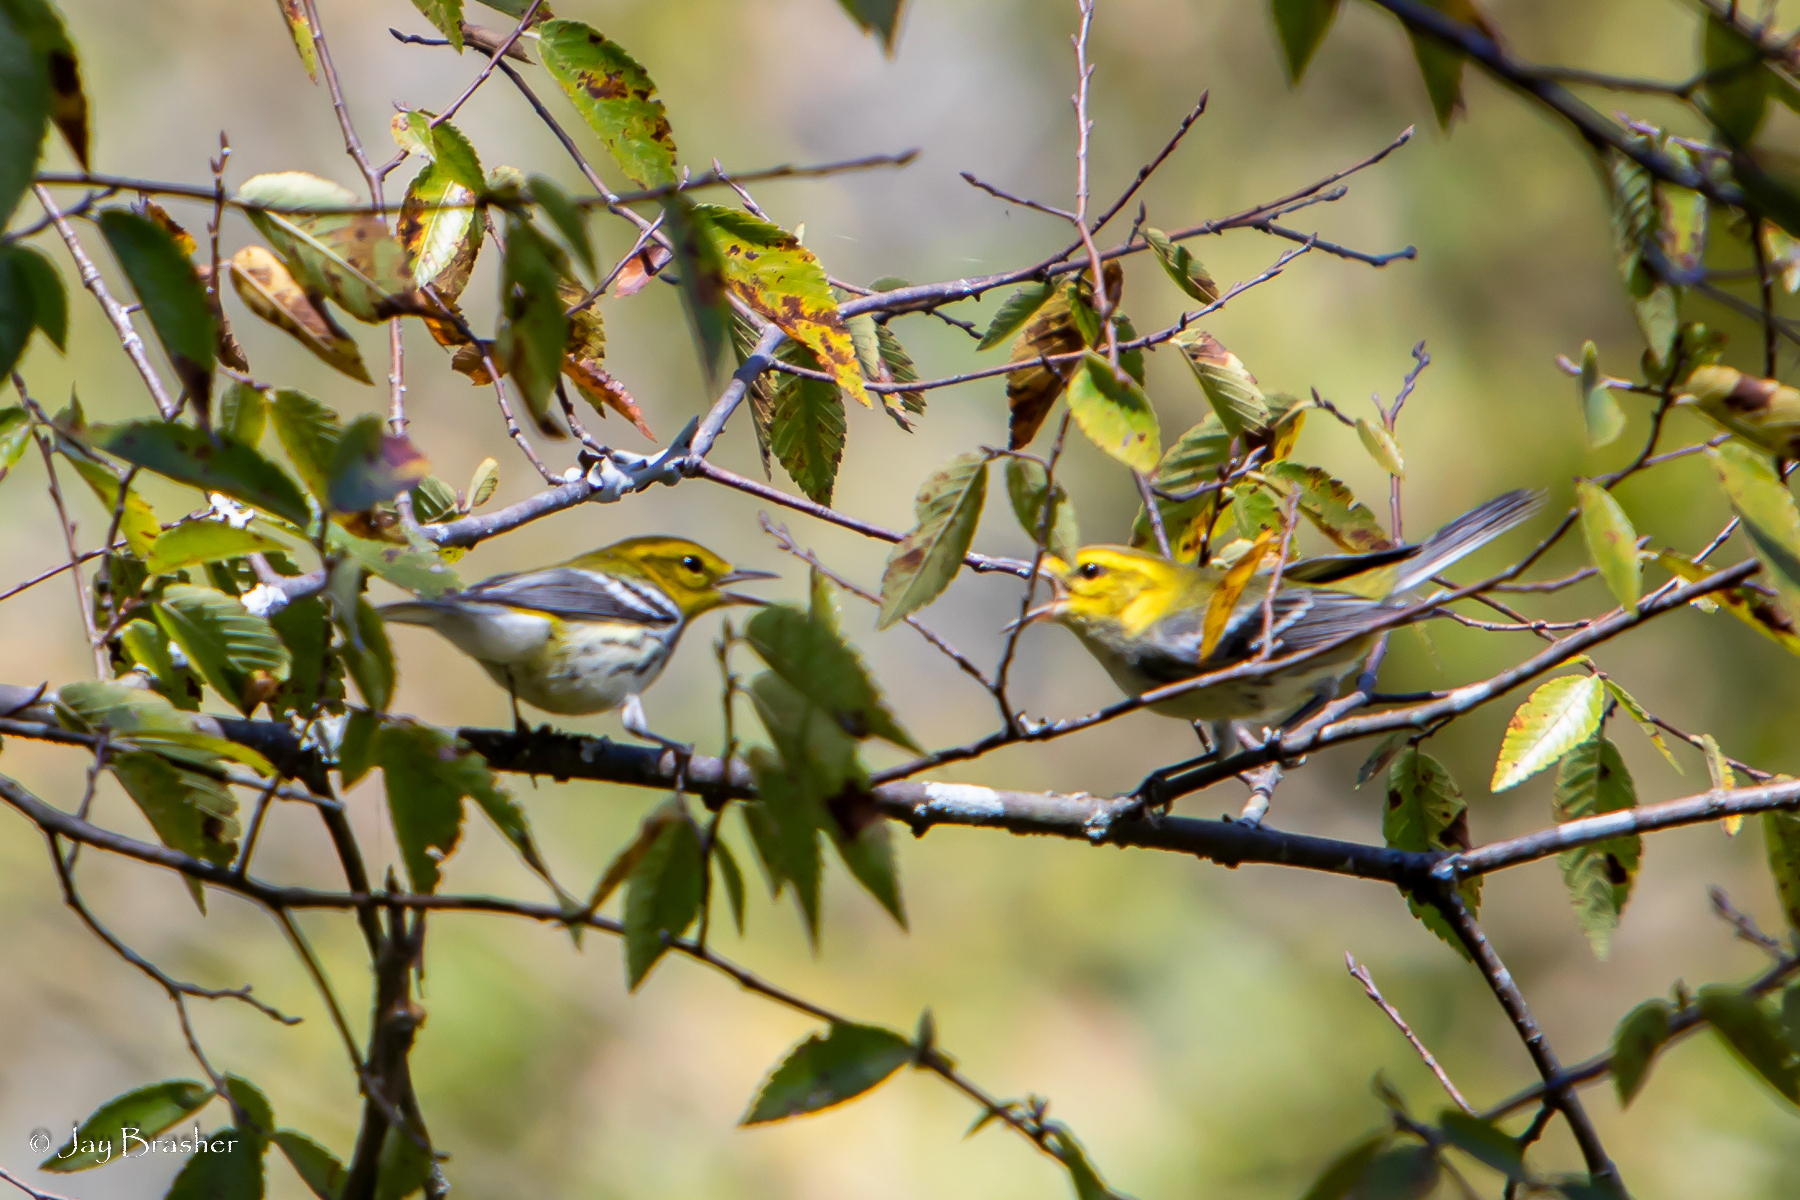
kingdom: Animalia
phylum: Chordata
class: Aves
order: Passeriformes
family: Parulidae
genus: Setophaga
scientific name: Setophaga virens
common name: Black-throated green warbler
